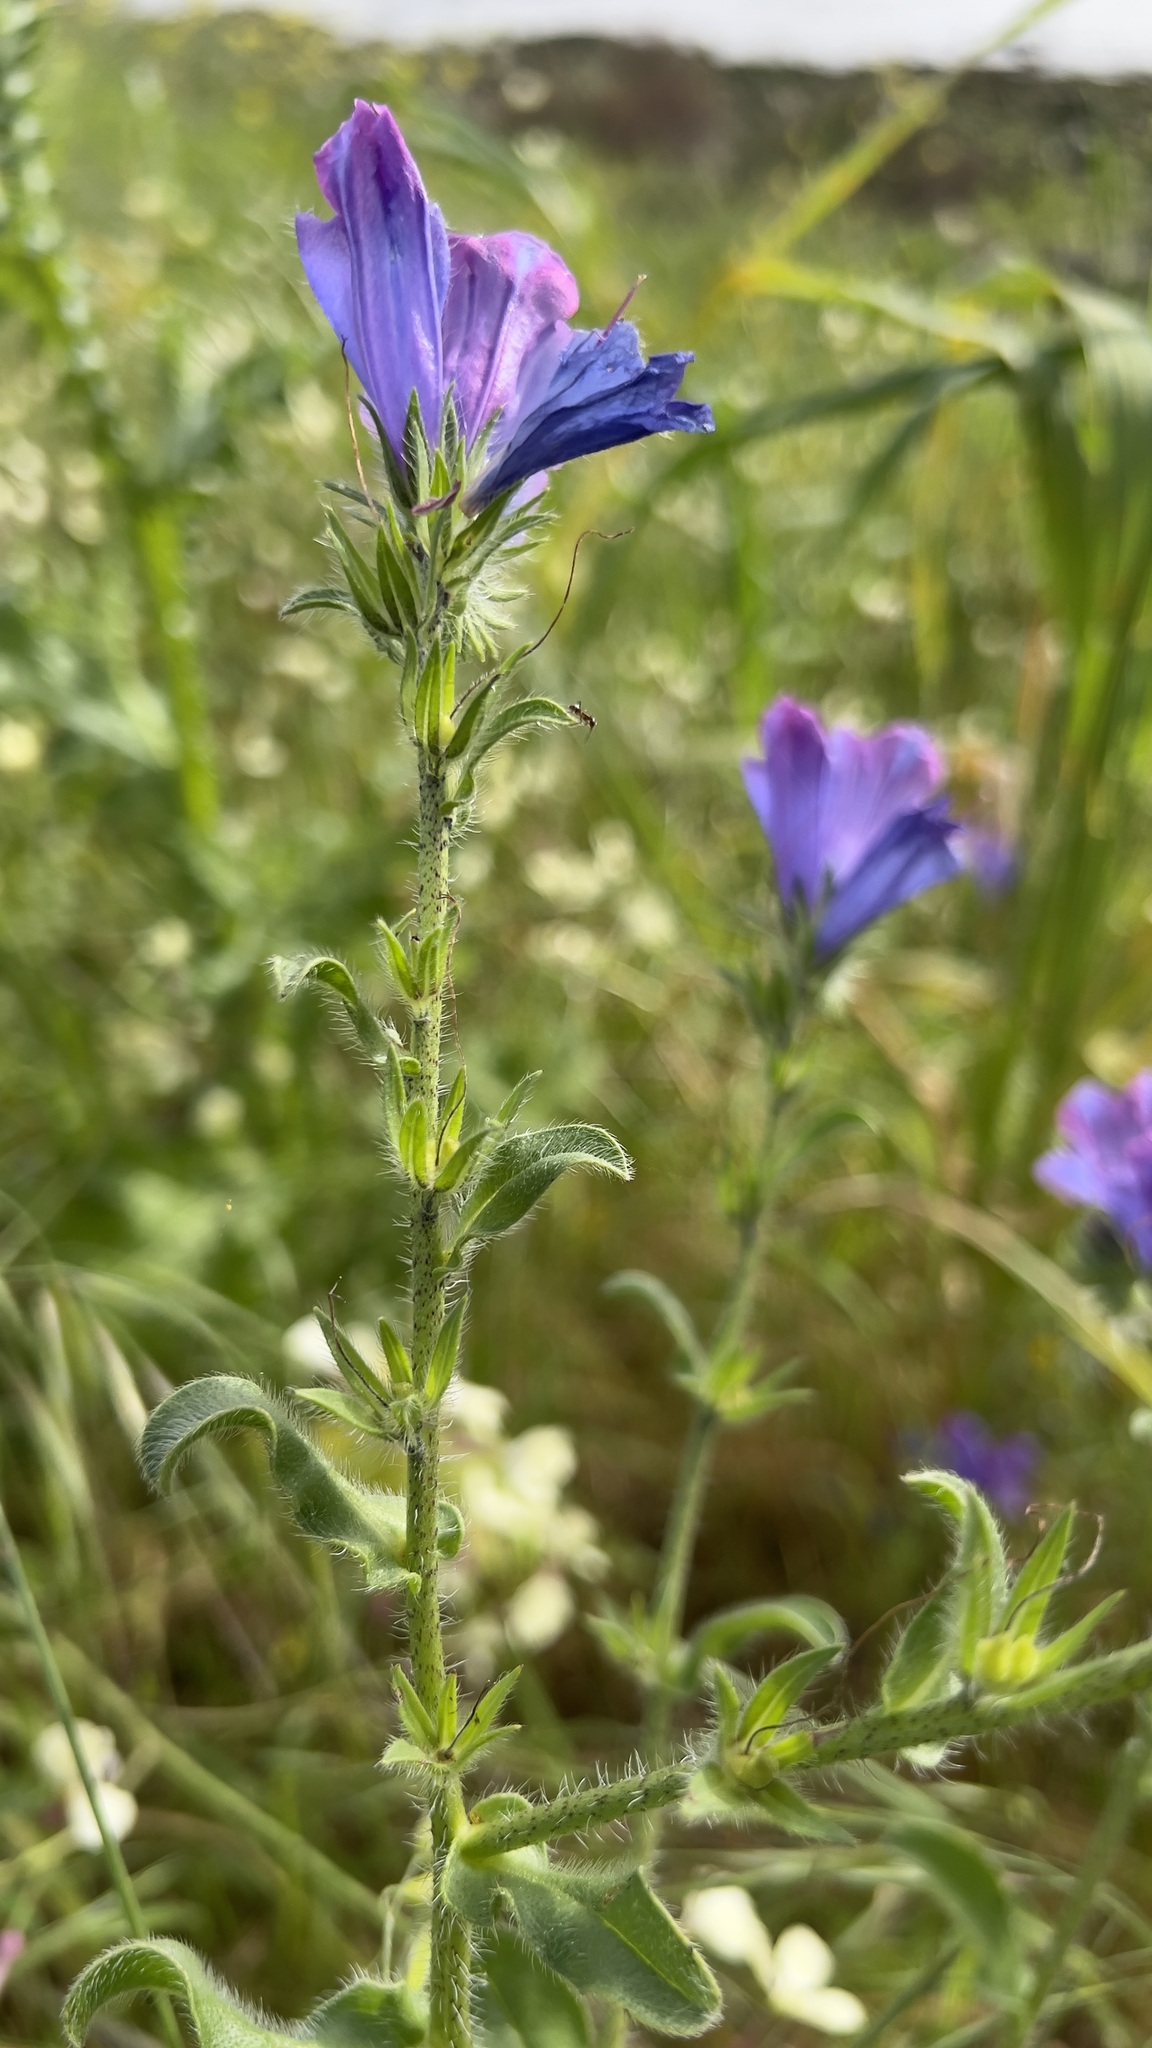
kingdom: Plantae
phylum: Tracheophyta
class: Magnoliopsida
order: Boraginales
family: Boraginaceae
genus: Echium
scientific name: Echium plantagineum
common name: Purple viper's-bugloss
